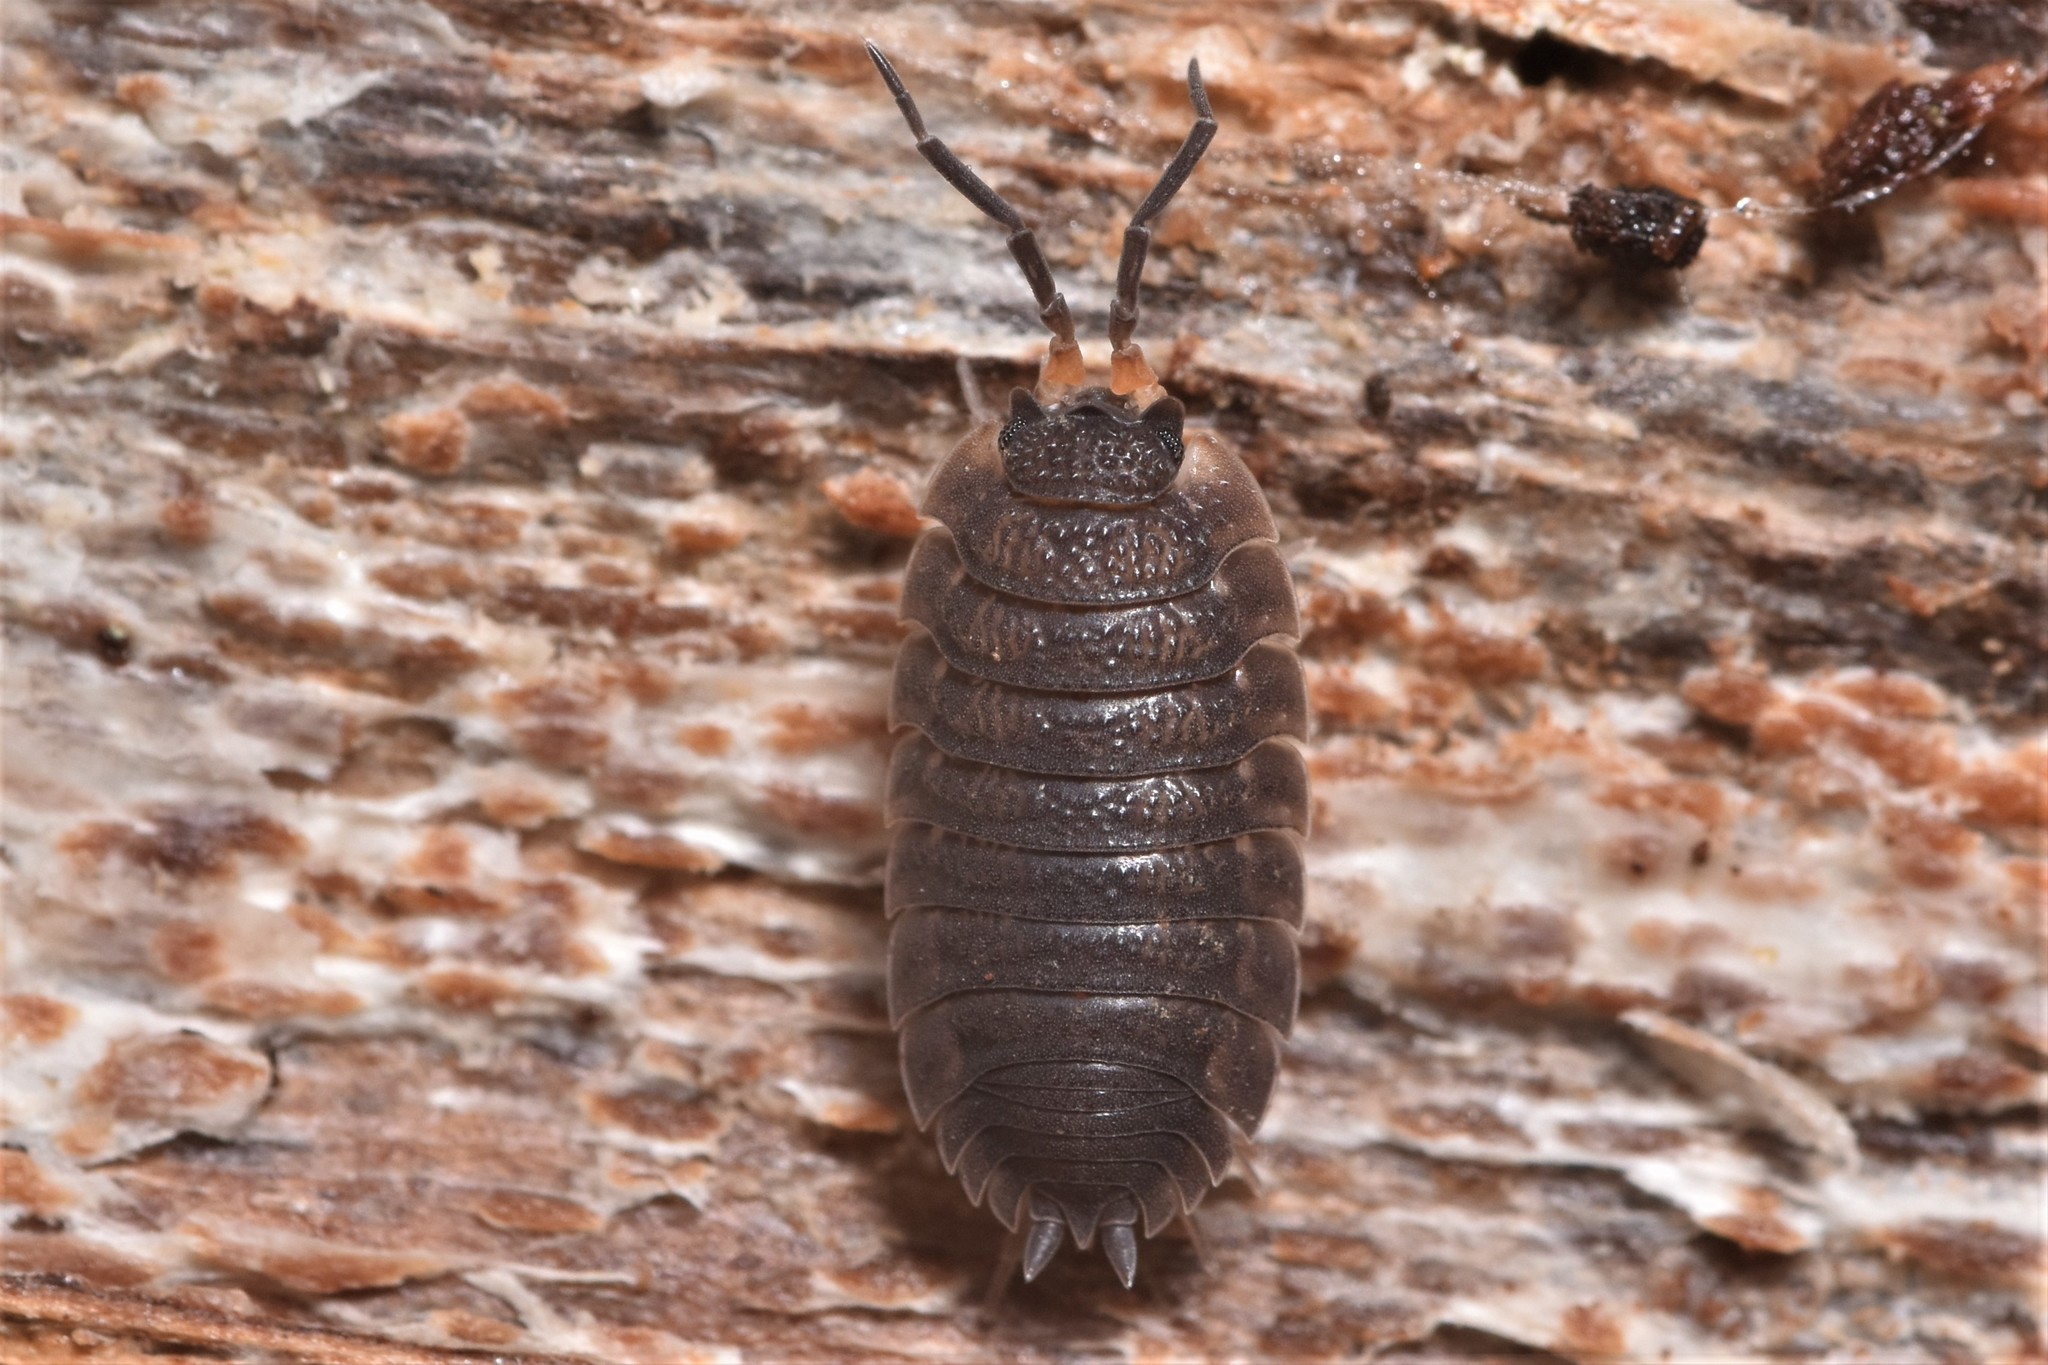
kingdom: Animalia
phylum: Arthropoda
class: Malacostraca
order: Isopoda
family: Porcellionidae
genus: Porcellio
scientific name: Porcellio scaber
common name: Common rough woodlouse
